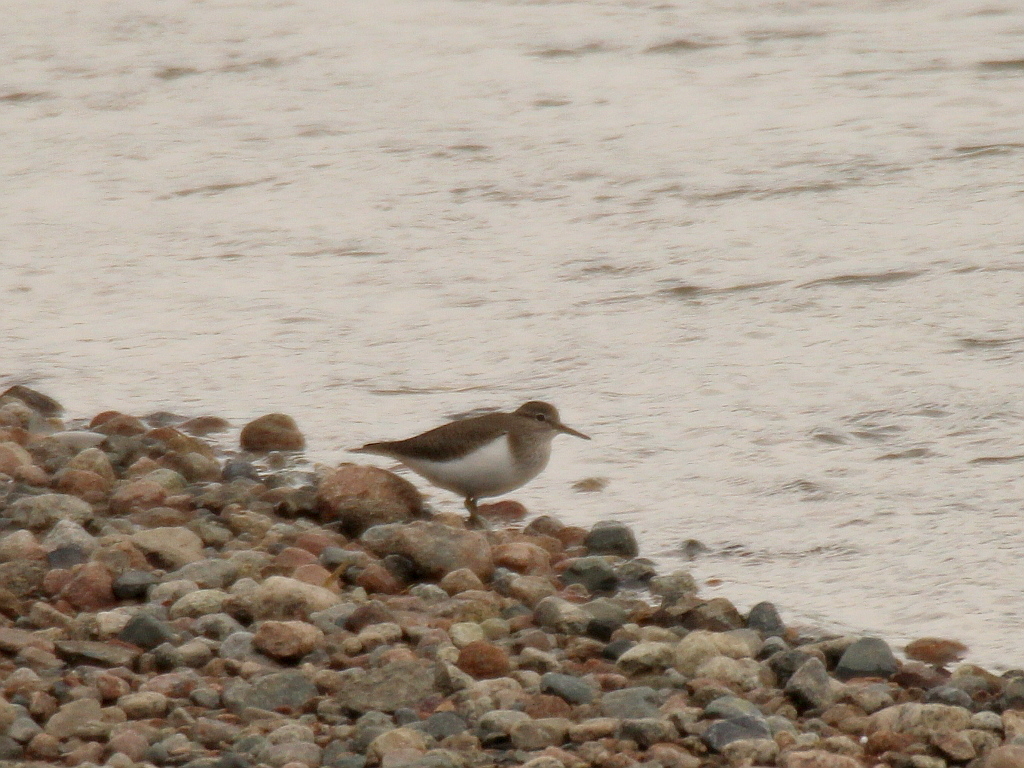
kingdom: Animalia
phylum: Chordata
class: Aves
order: Charadriiformes
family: Scolopacidae
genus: Actitis
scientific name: Actitis hypoleucos
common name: Common sandpiper
